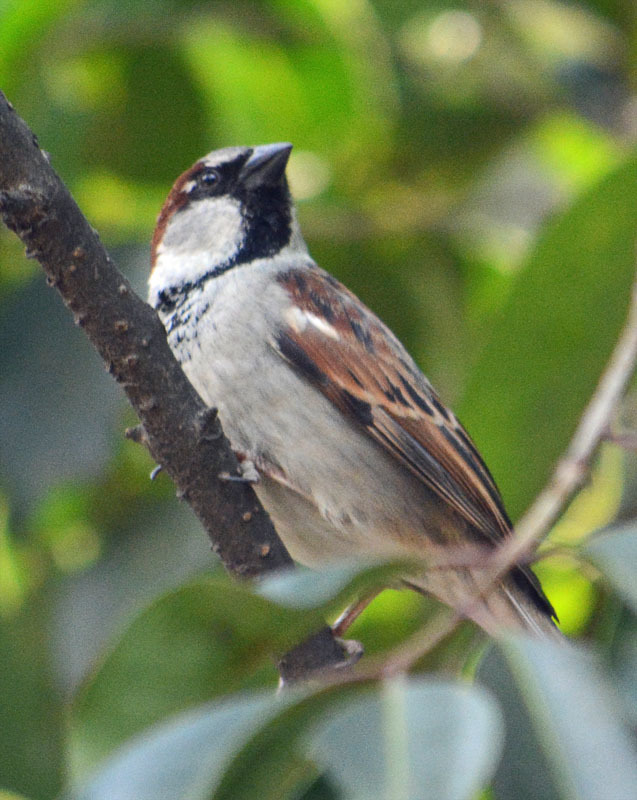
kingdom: Animalia
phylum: Chordata
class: Aves
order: Passeriformes
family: Passeridae
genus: Passer
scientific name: Passer domesticus
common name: House sparrow
